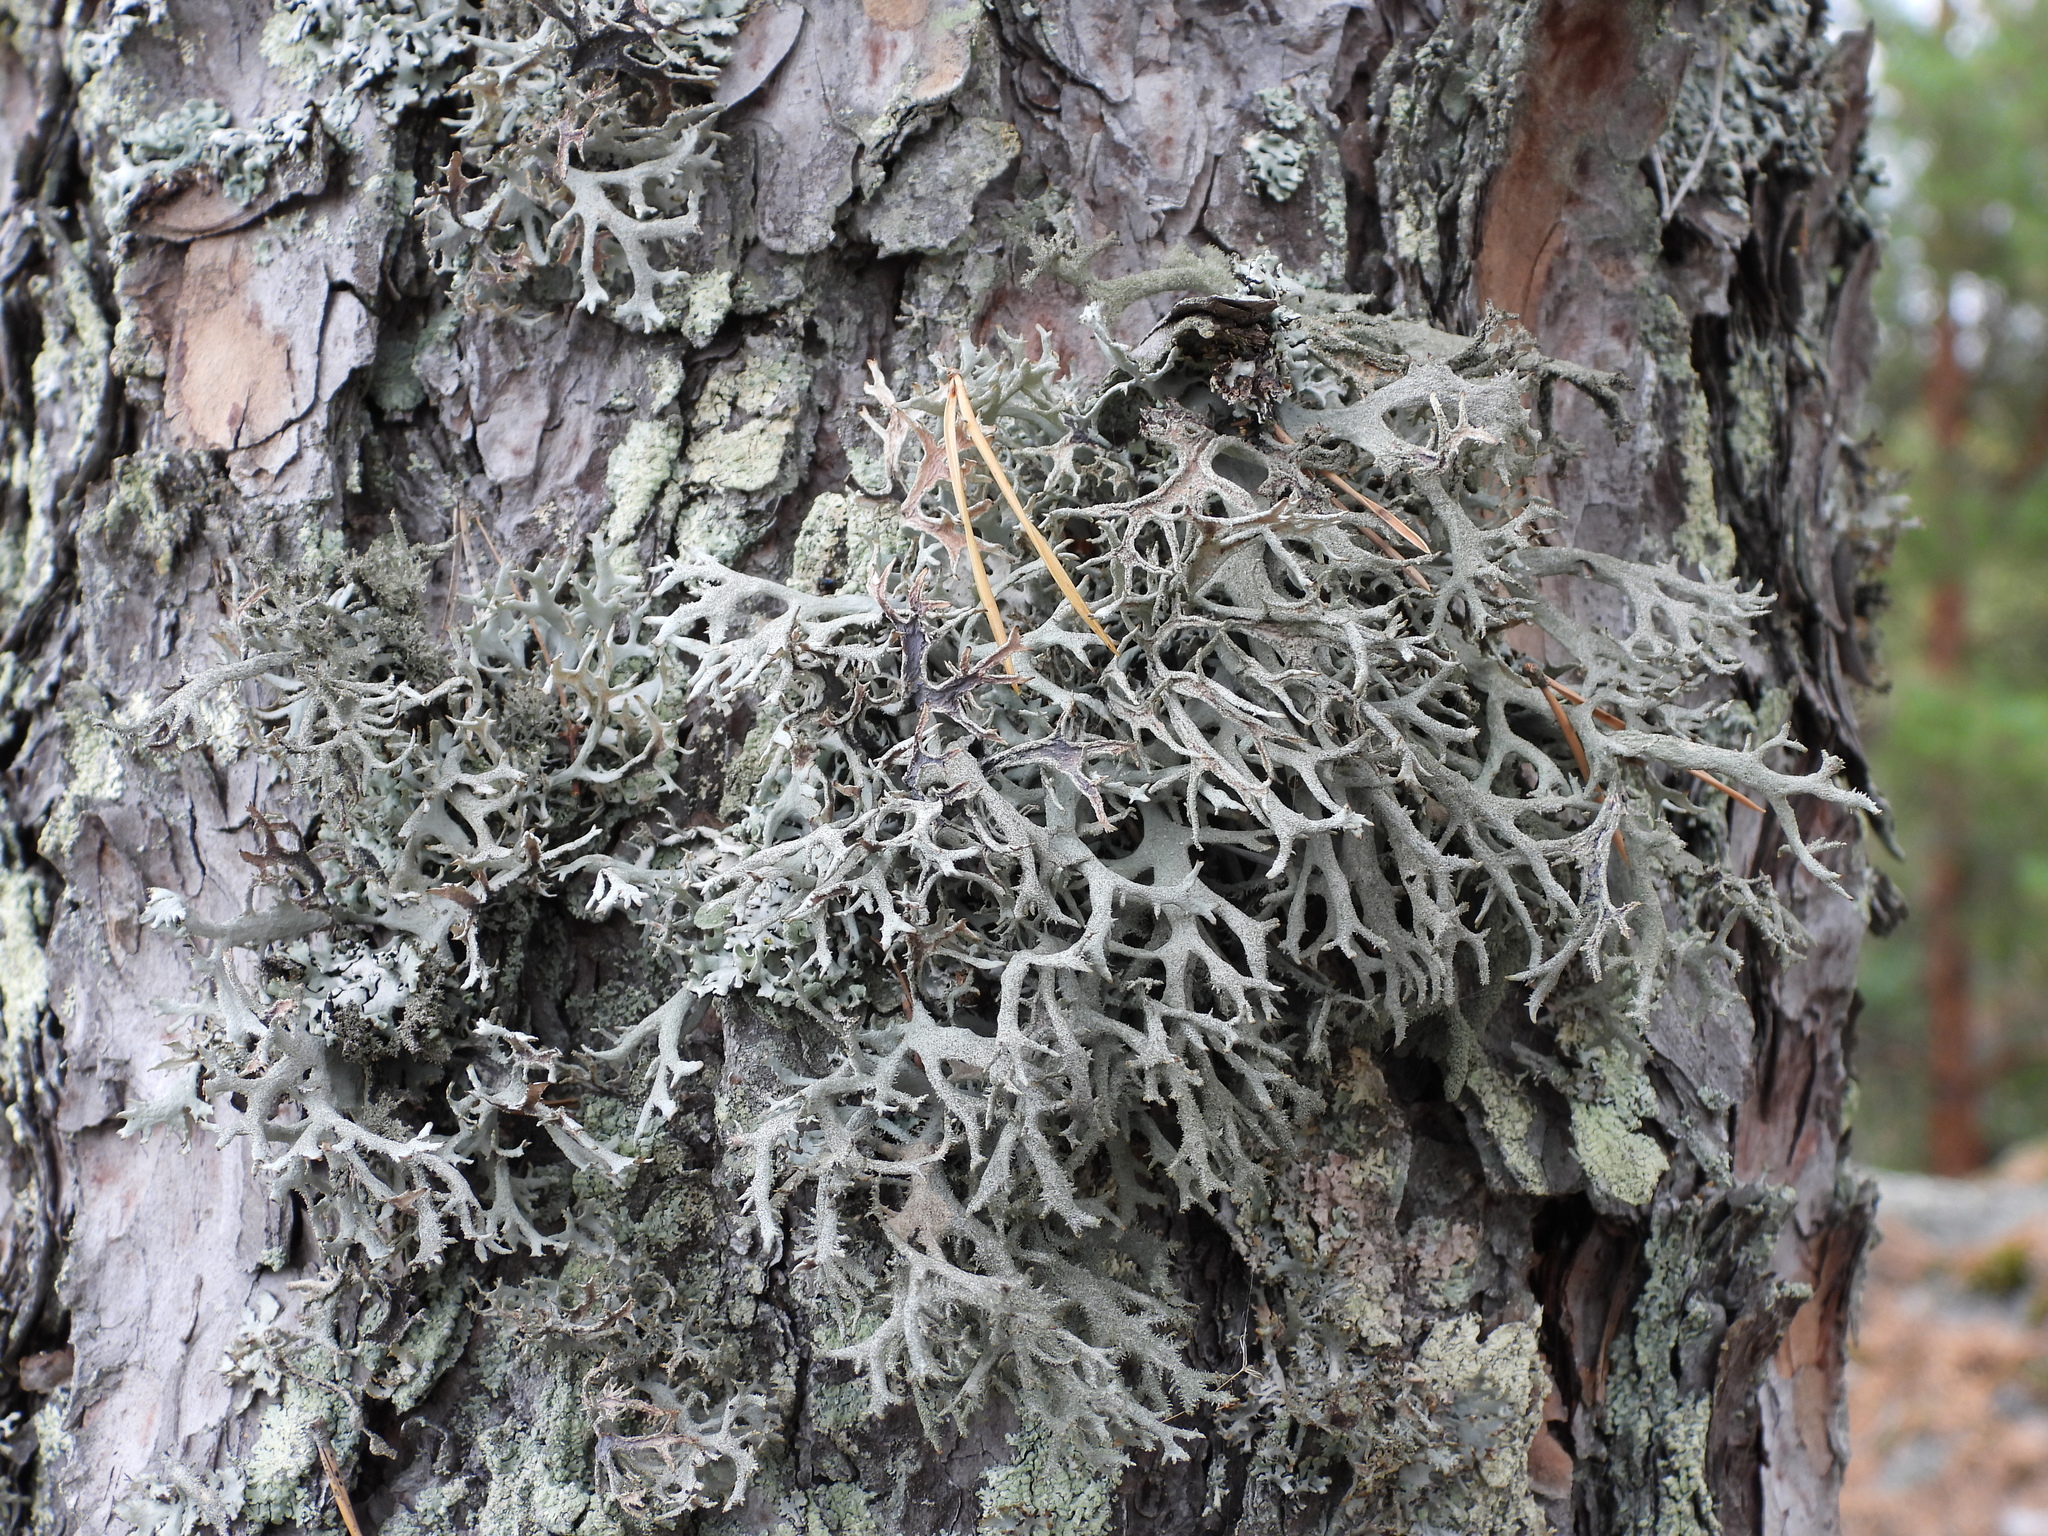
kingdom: Fungi
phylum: Ascomycota
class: Lecanoromycetes
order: Lecanorales
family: Parmeliaceae
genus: Pseudevernia
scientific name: Pseudevernia furfuracea
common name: Tree moss
